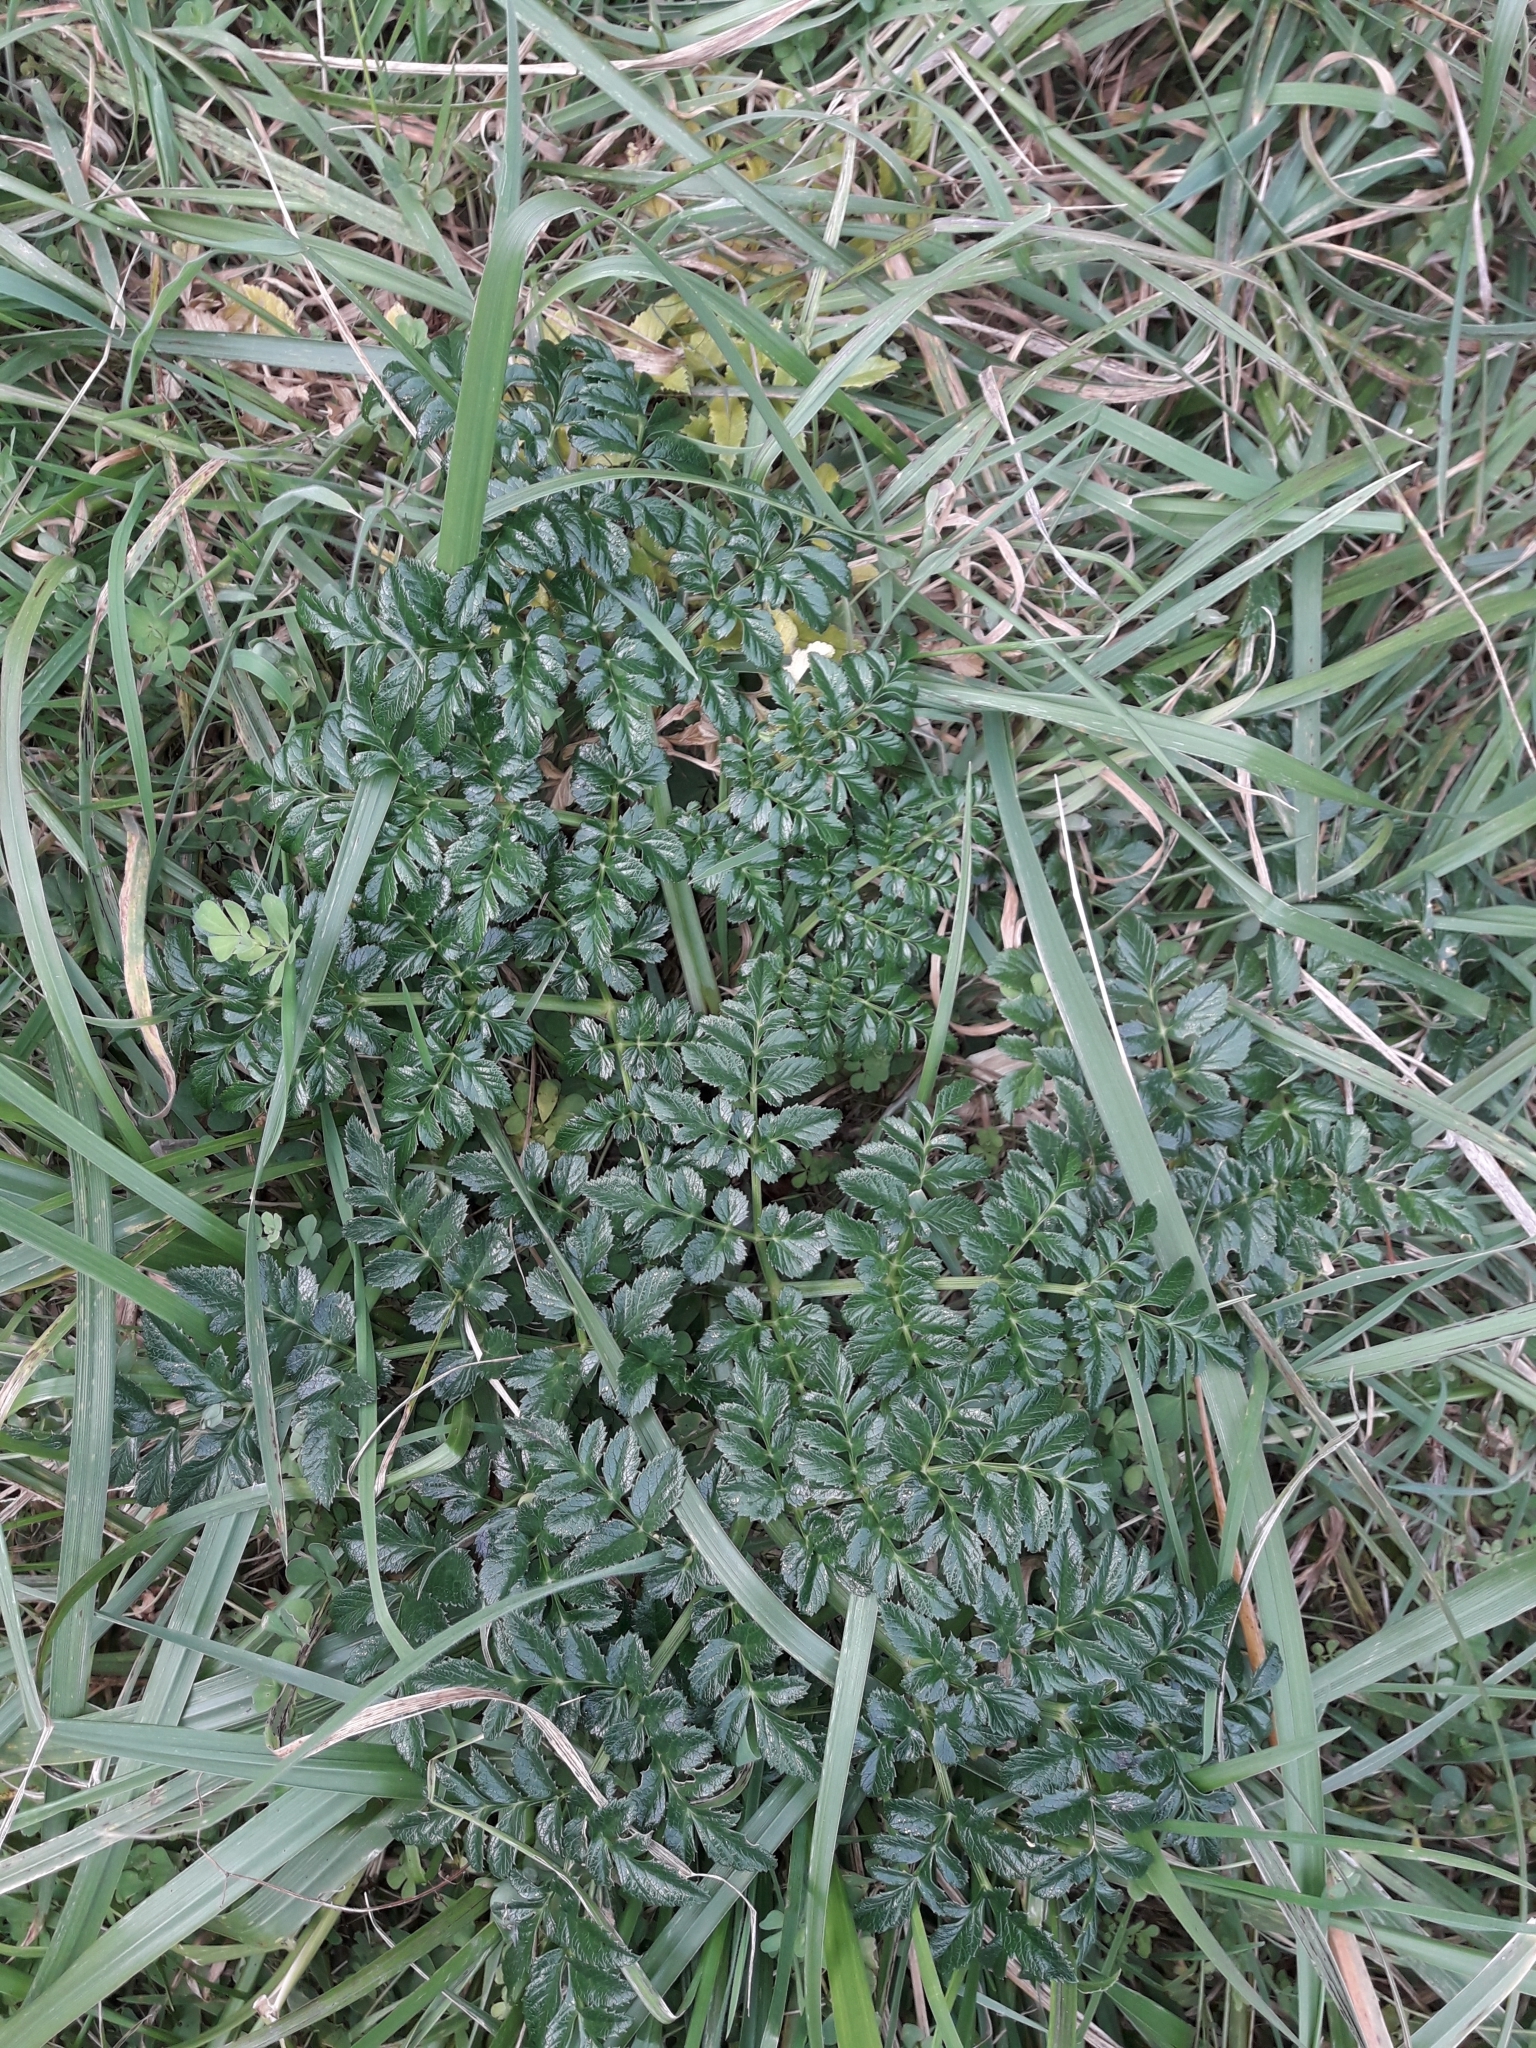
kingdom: Plantae
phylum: Tracheophyta
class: Magnoliopsida
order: Apiales
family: Apiaceae
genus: Angelica
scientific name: Angelica pachycarpa
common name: Portuguese angelica
